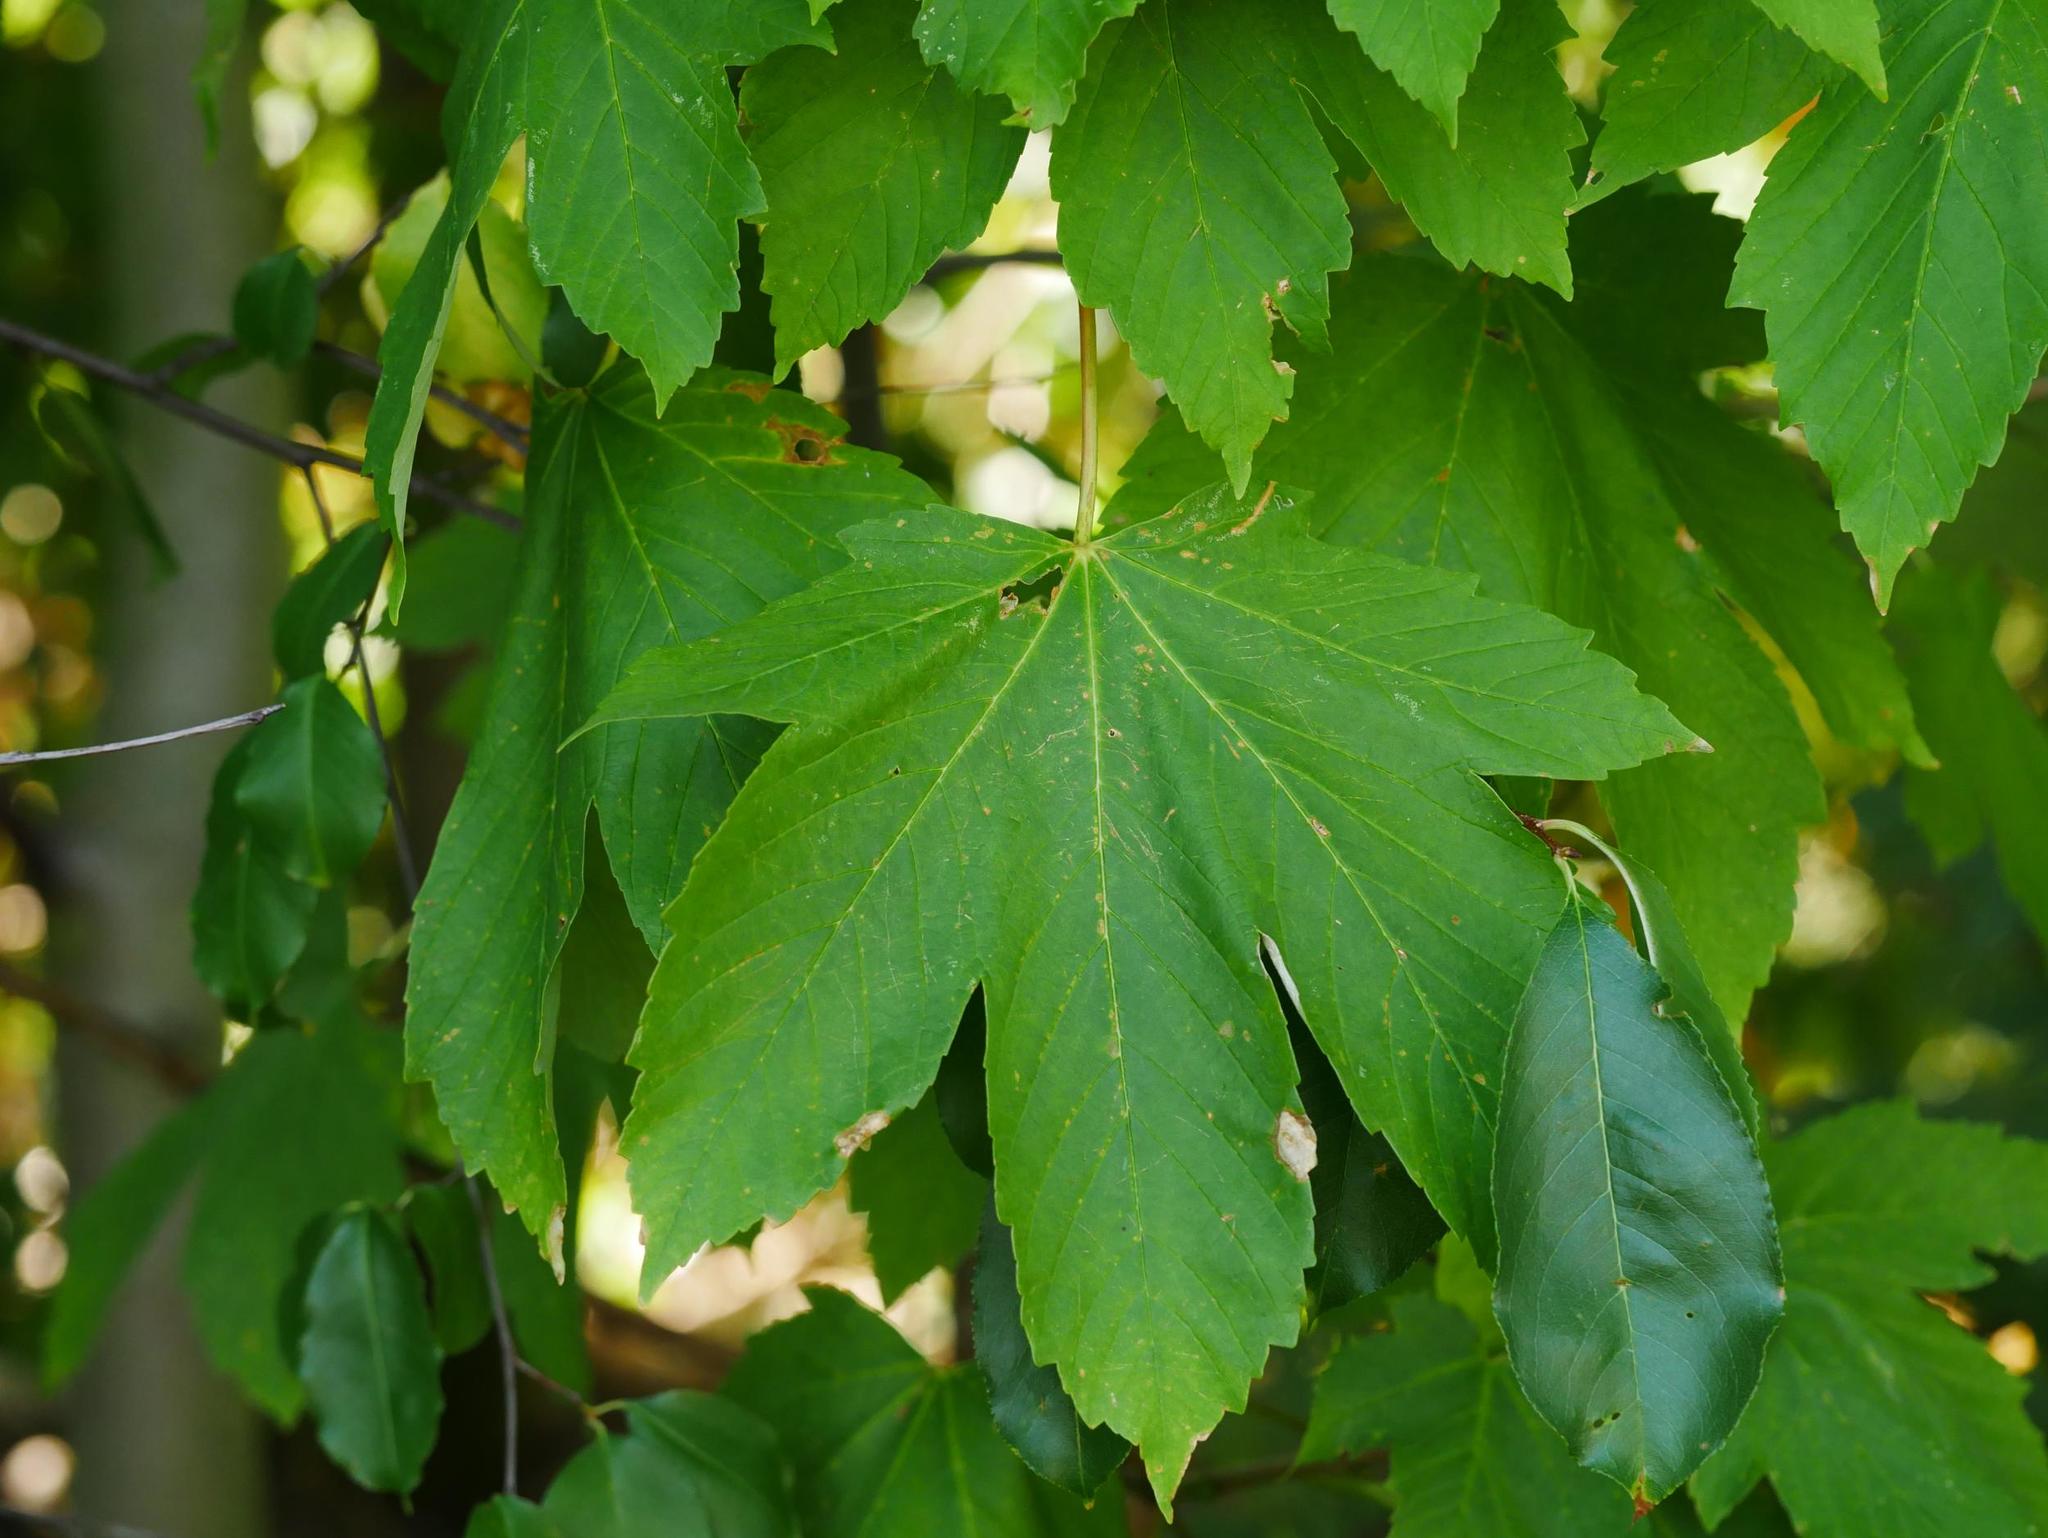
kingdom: Plantae
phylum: Tracheophyta
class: Magnoliopsida
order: Sapindales
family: Sapindaceae
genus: Acer
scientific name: Acer pseudoplatanus
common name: Sycamore
